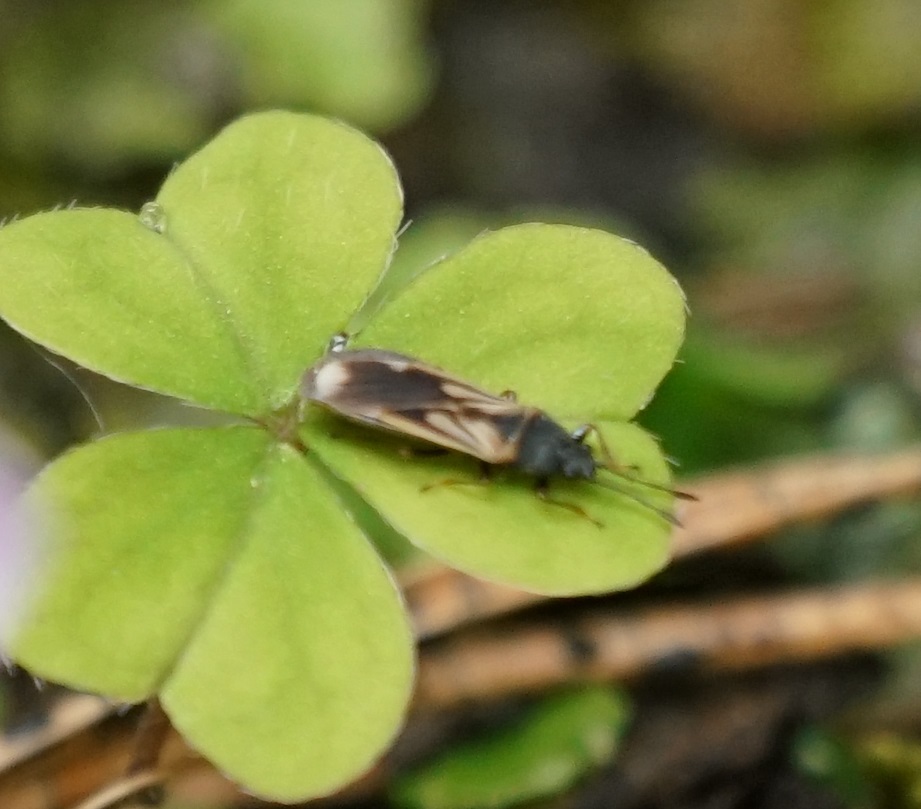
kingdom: Animalia
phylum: Arthropoda
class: Insecta
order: Hemiptera
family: Blissidae
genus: Ischnodemus
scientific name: Ischnodemus sabuleti
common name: European cinchbug
